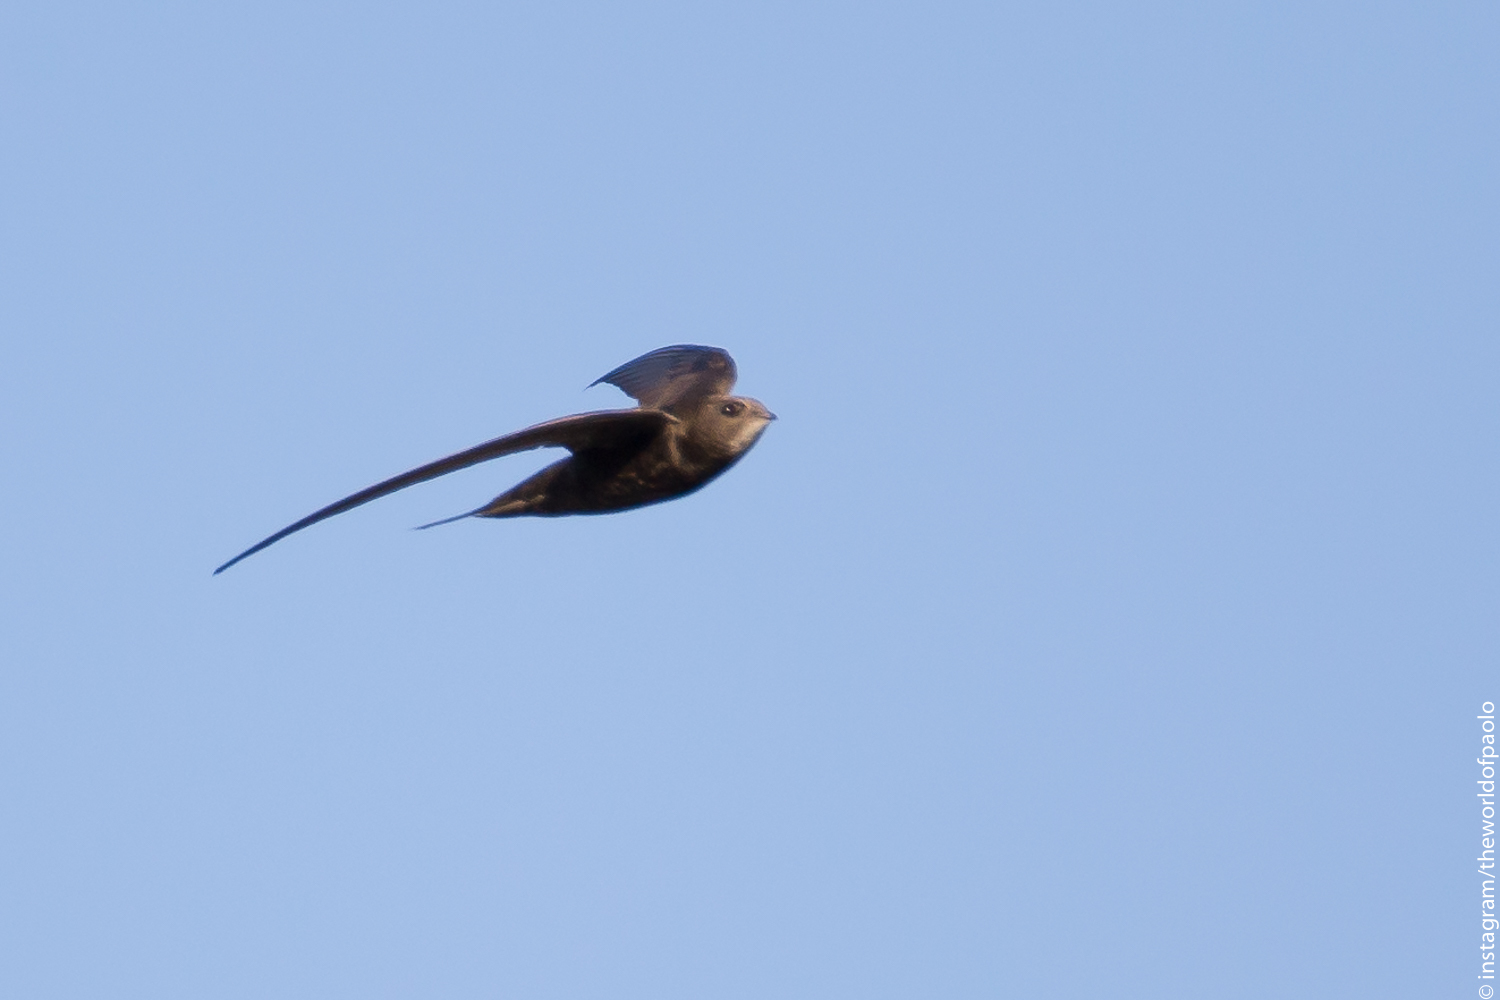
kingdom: Animalia
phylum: Chordata
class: Aves
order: Apodiformes
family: Apodidae
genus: Apus
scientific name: Apus apus
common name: Common swift
